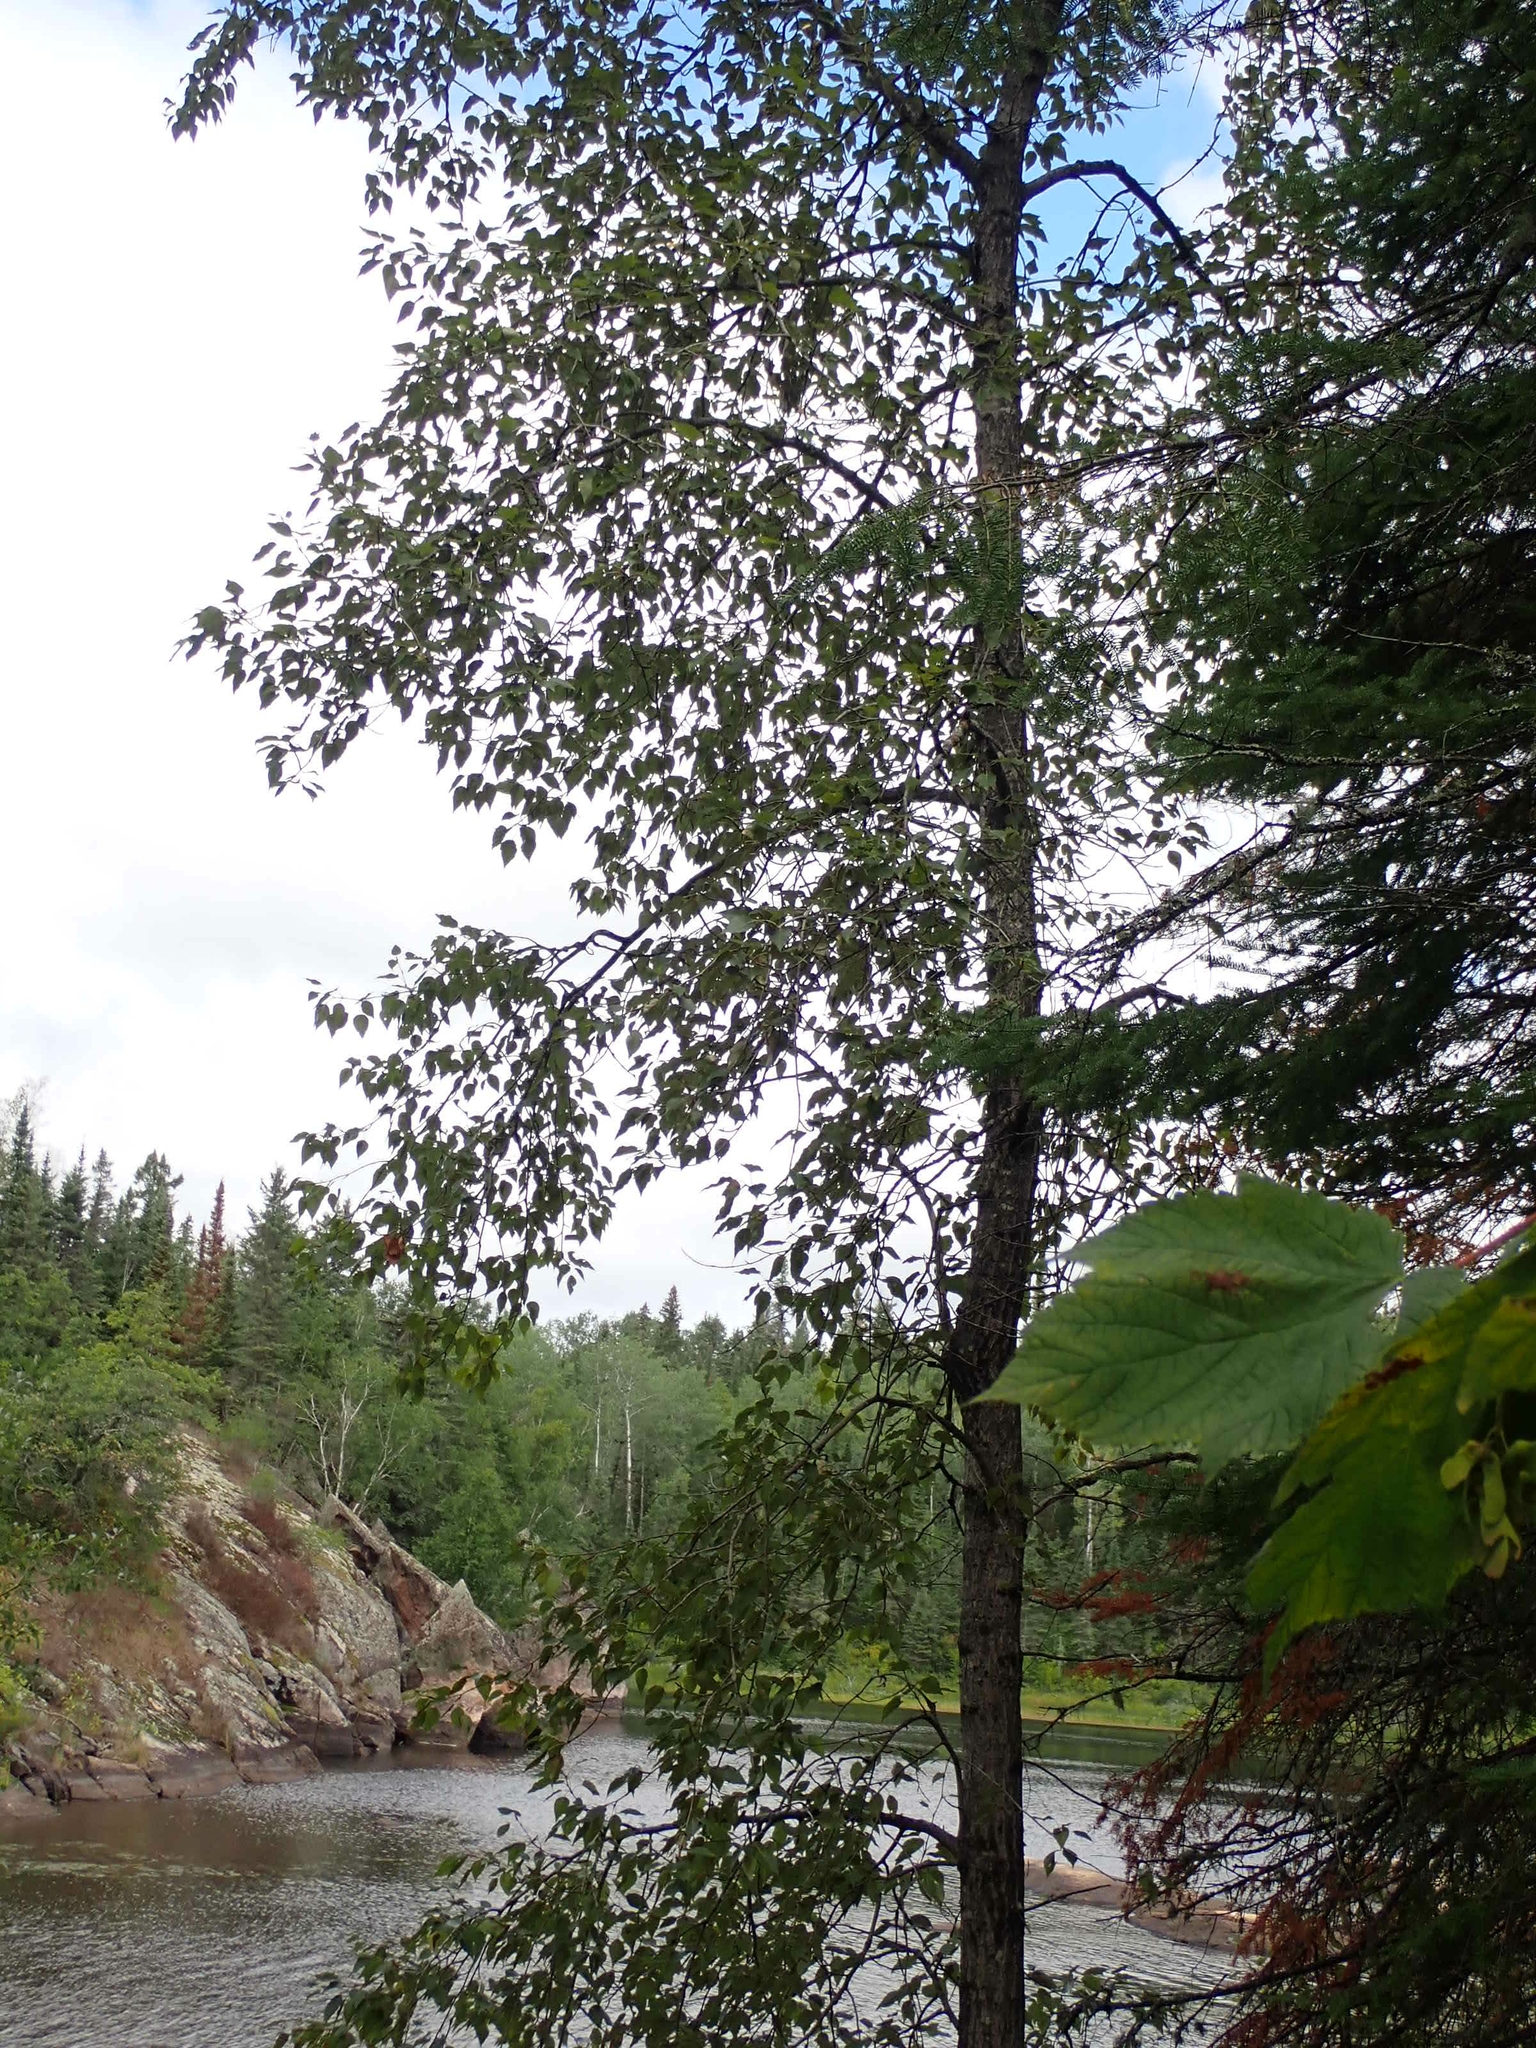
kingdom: Plantae
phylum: Tracheophyta
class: Magnoliopsida
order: Malpighiales
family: Salicaceae
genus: Populus
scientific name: Populus balsamifera
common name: Balsam poplar
